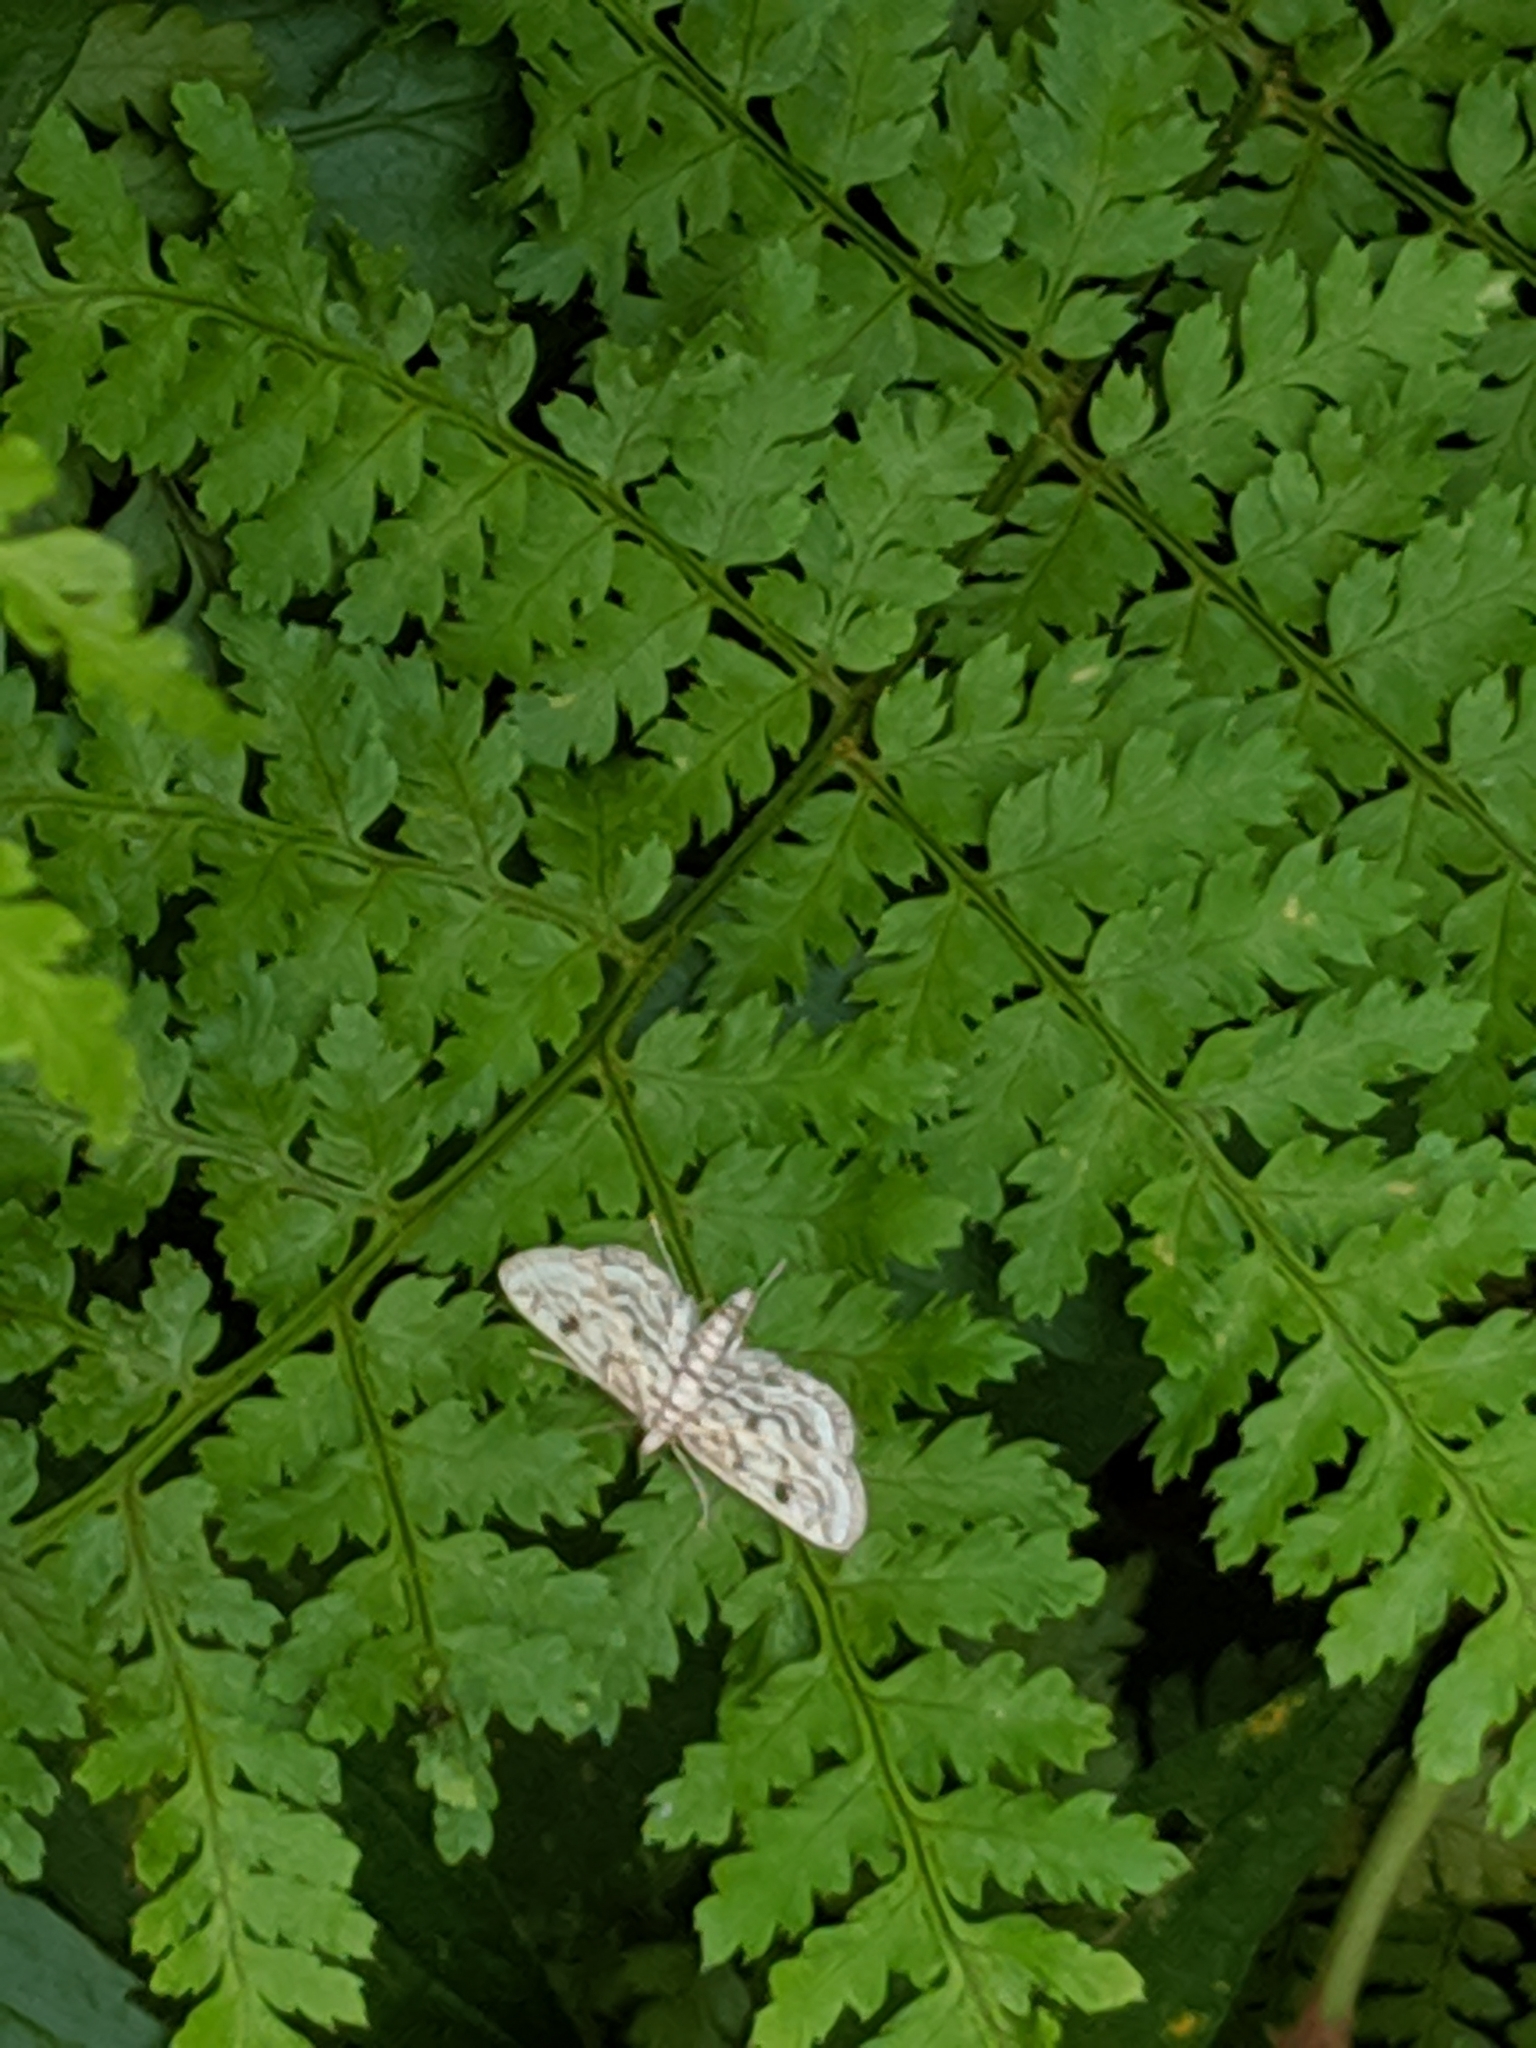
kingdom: Animalia
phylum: Arthropoda
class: Insecta
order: Lepidoptera
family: Crambidae
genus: Parapoynx
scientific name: Parapoynx allionealis
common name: Bladderwort casemaker
